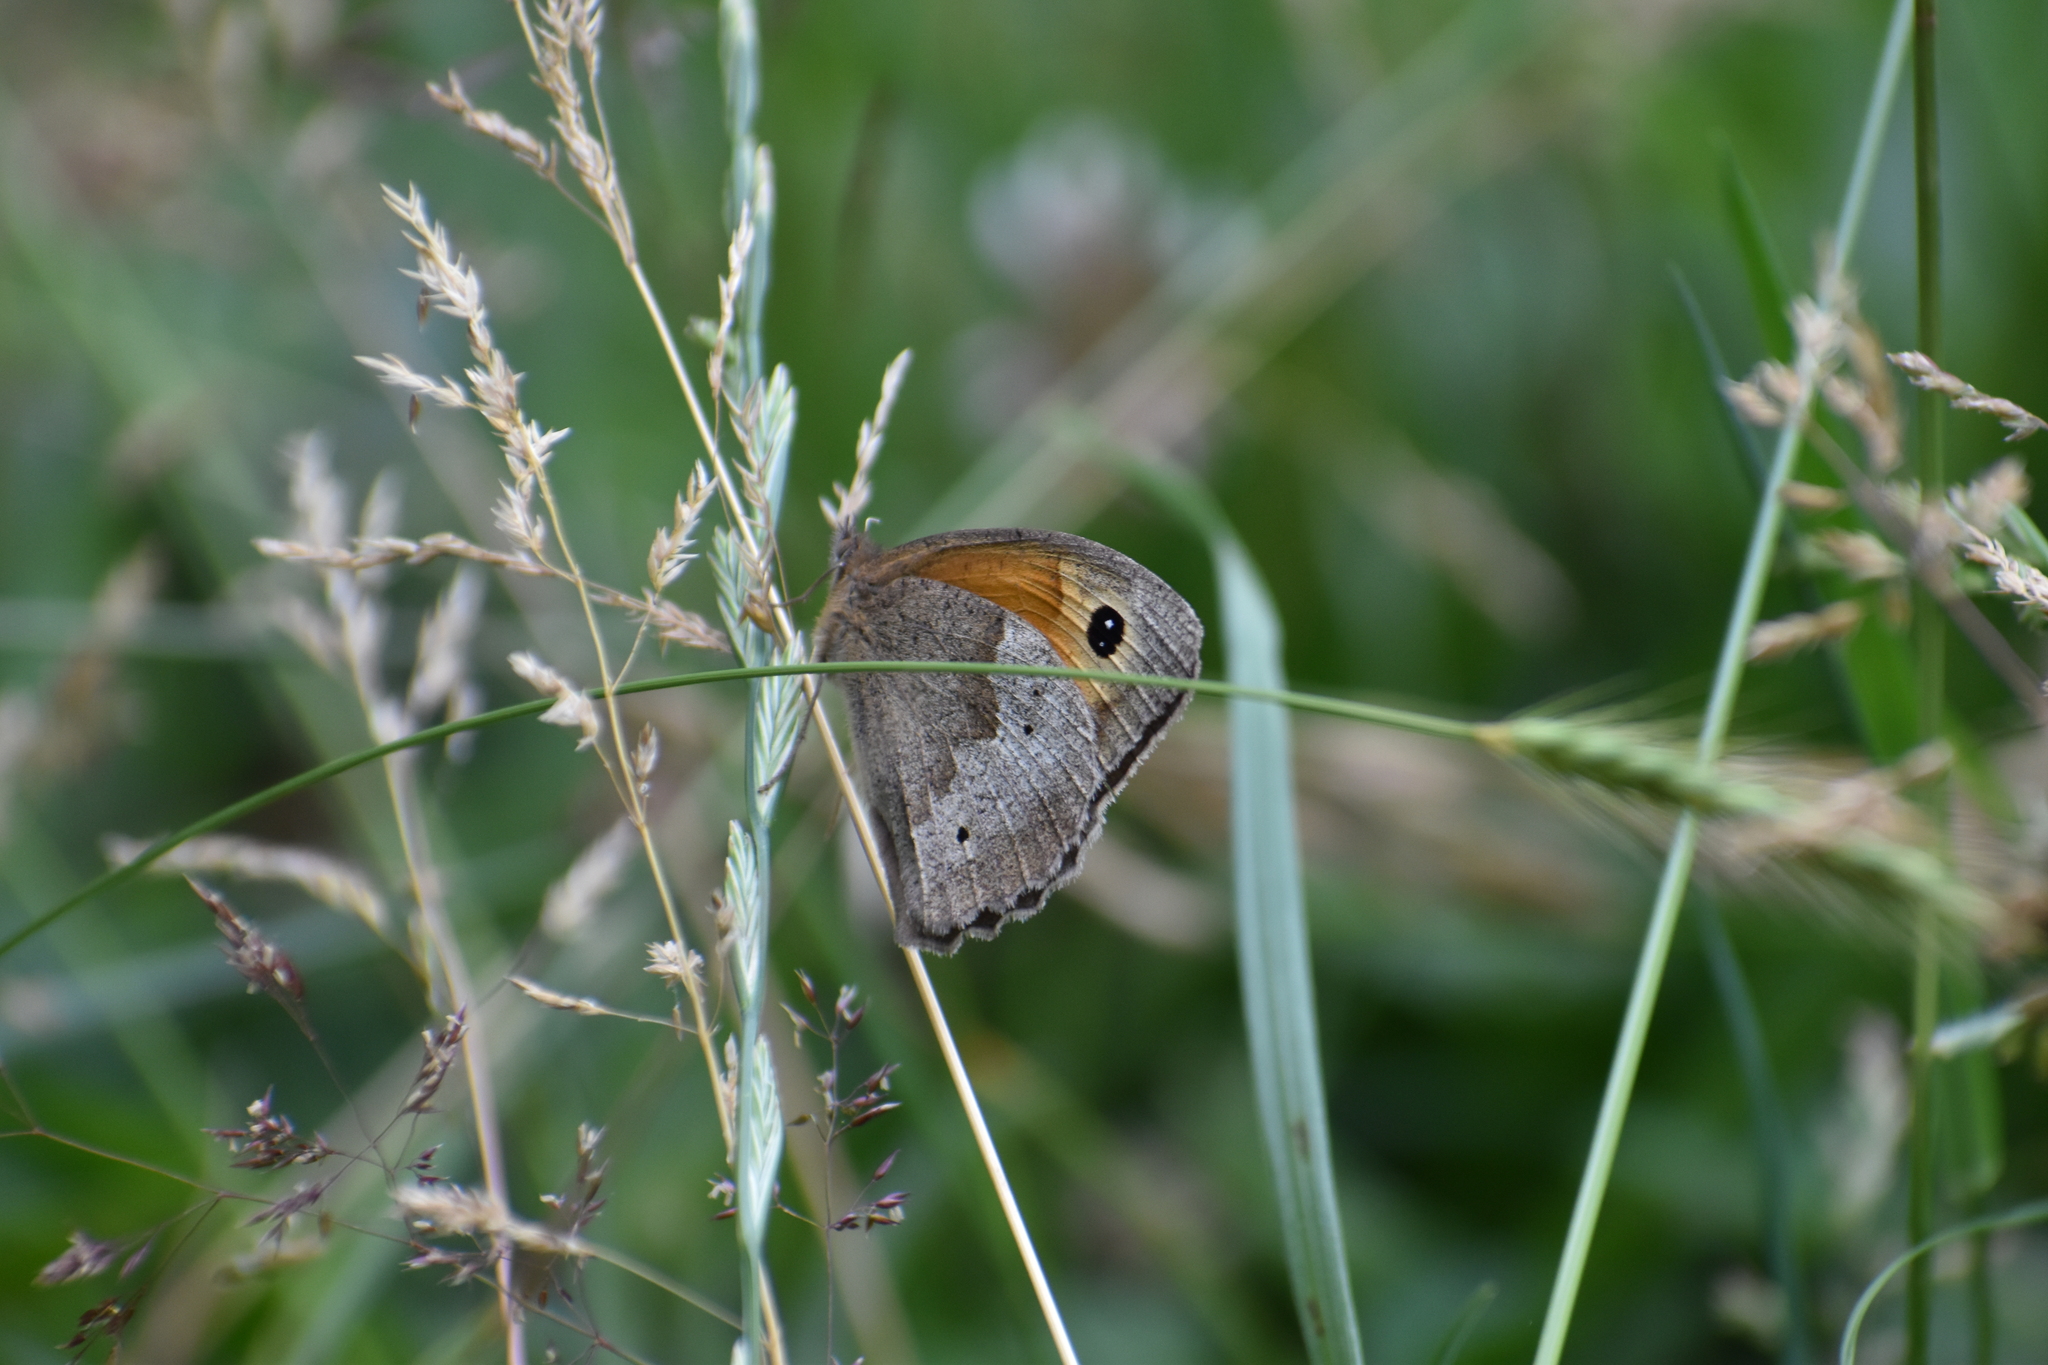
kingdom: Animalia
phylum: Arthropoda
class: Insecta
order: Lepidoptera
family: Nymphalidae
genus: Maniola
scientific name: Maniola jurtina
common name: Meadow brown
